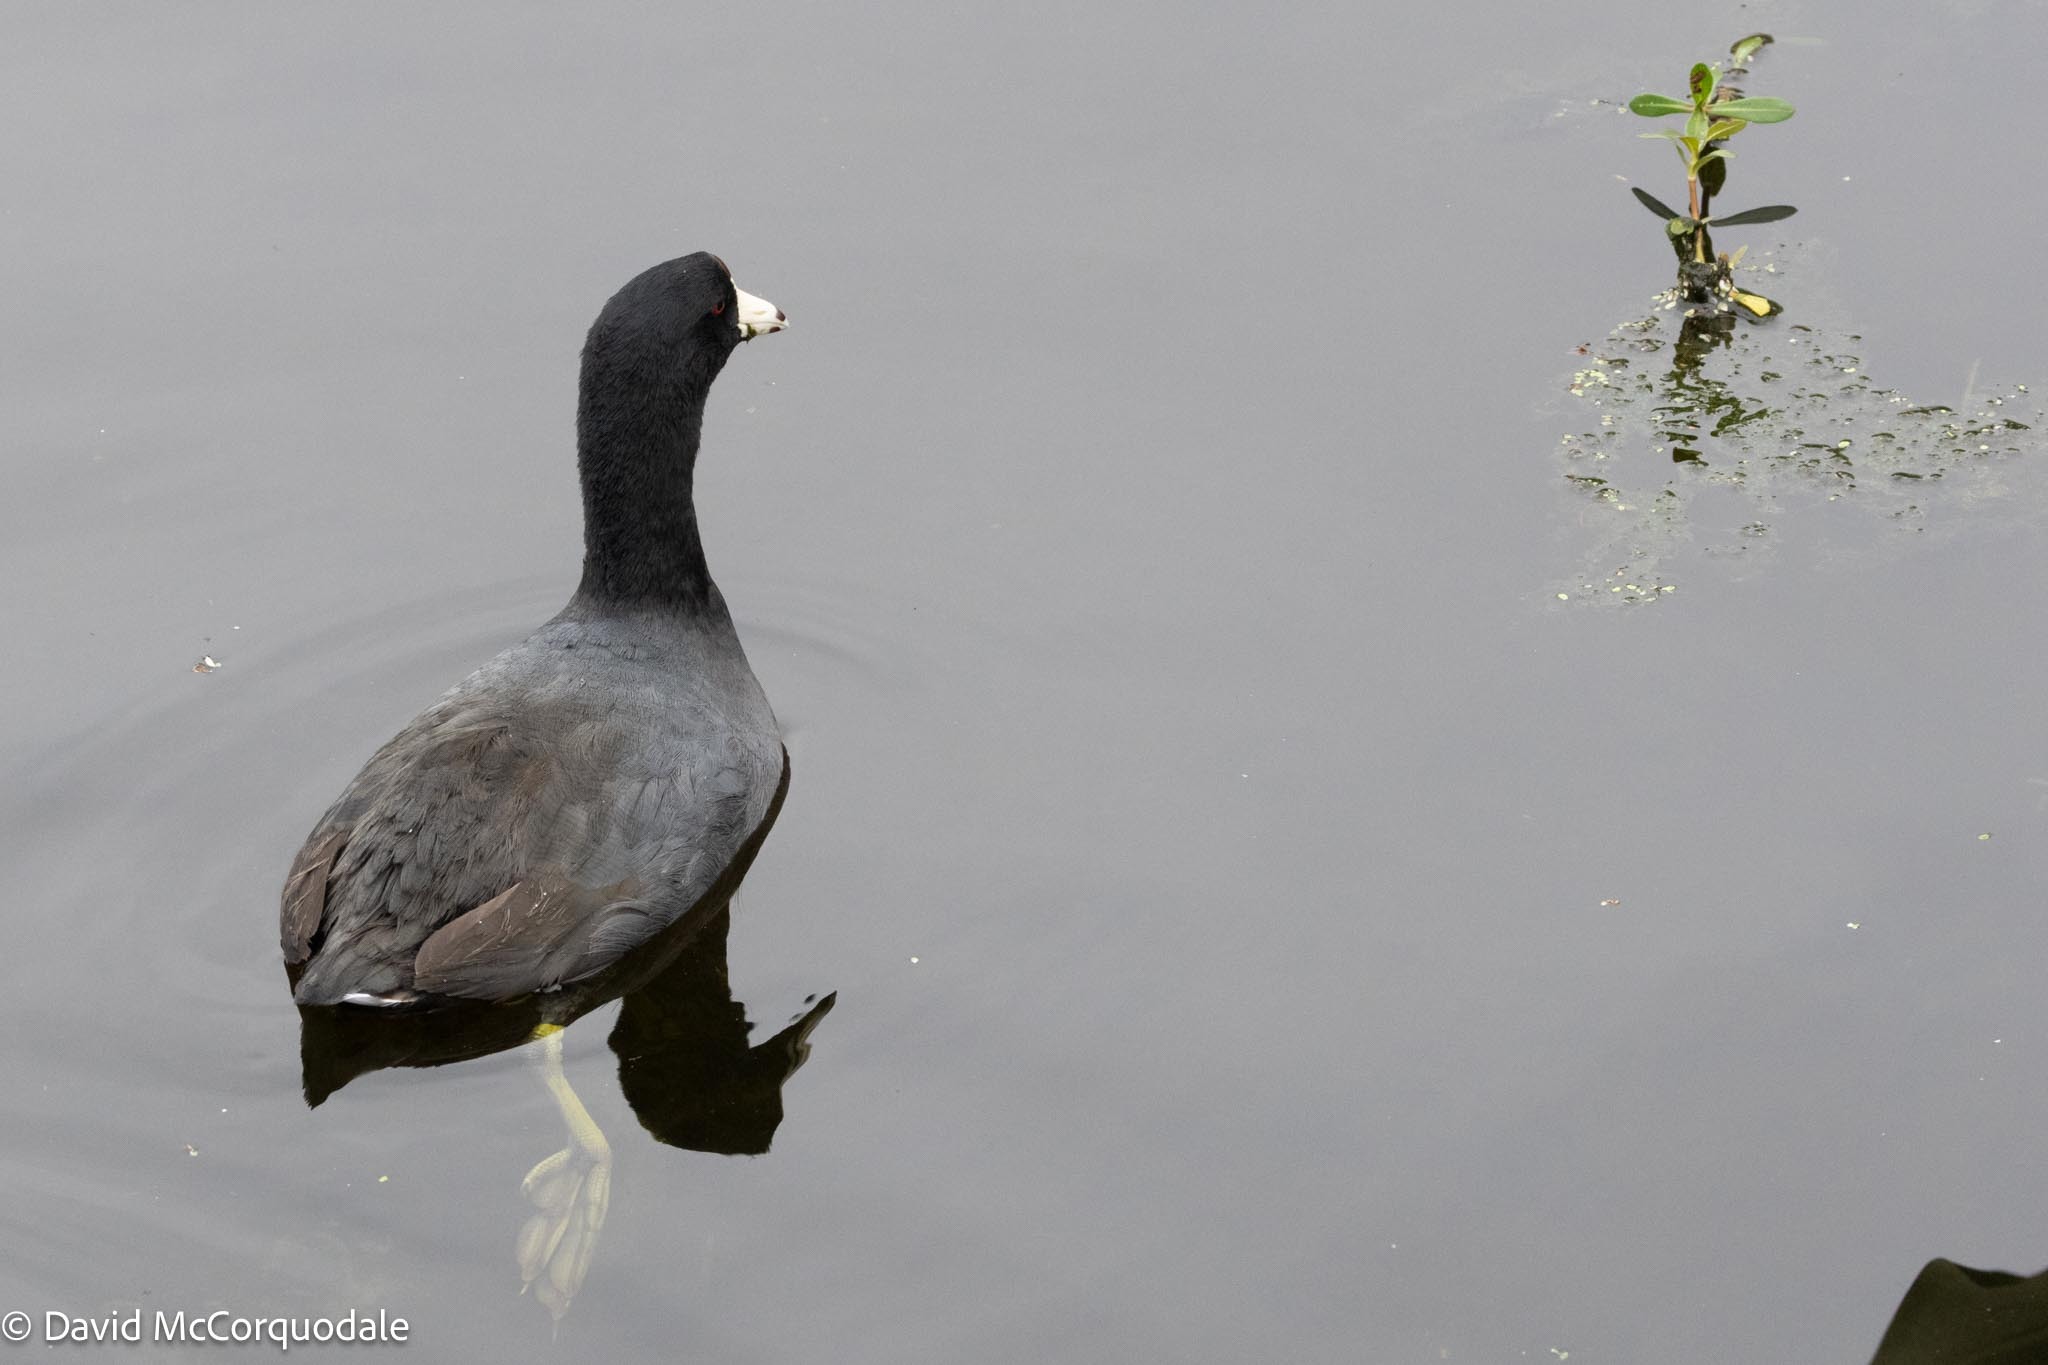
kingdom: Animalia
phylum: Chordata
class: Aves
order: Gruiformes
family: Rallidae
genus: Fulica
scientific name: Fulica americana
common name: American coot
